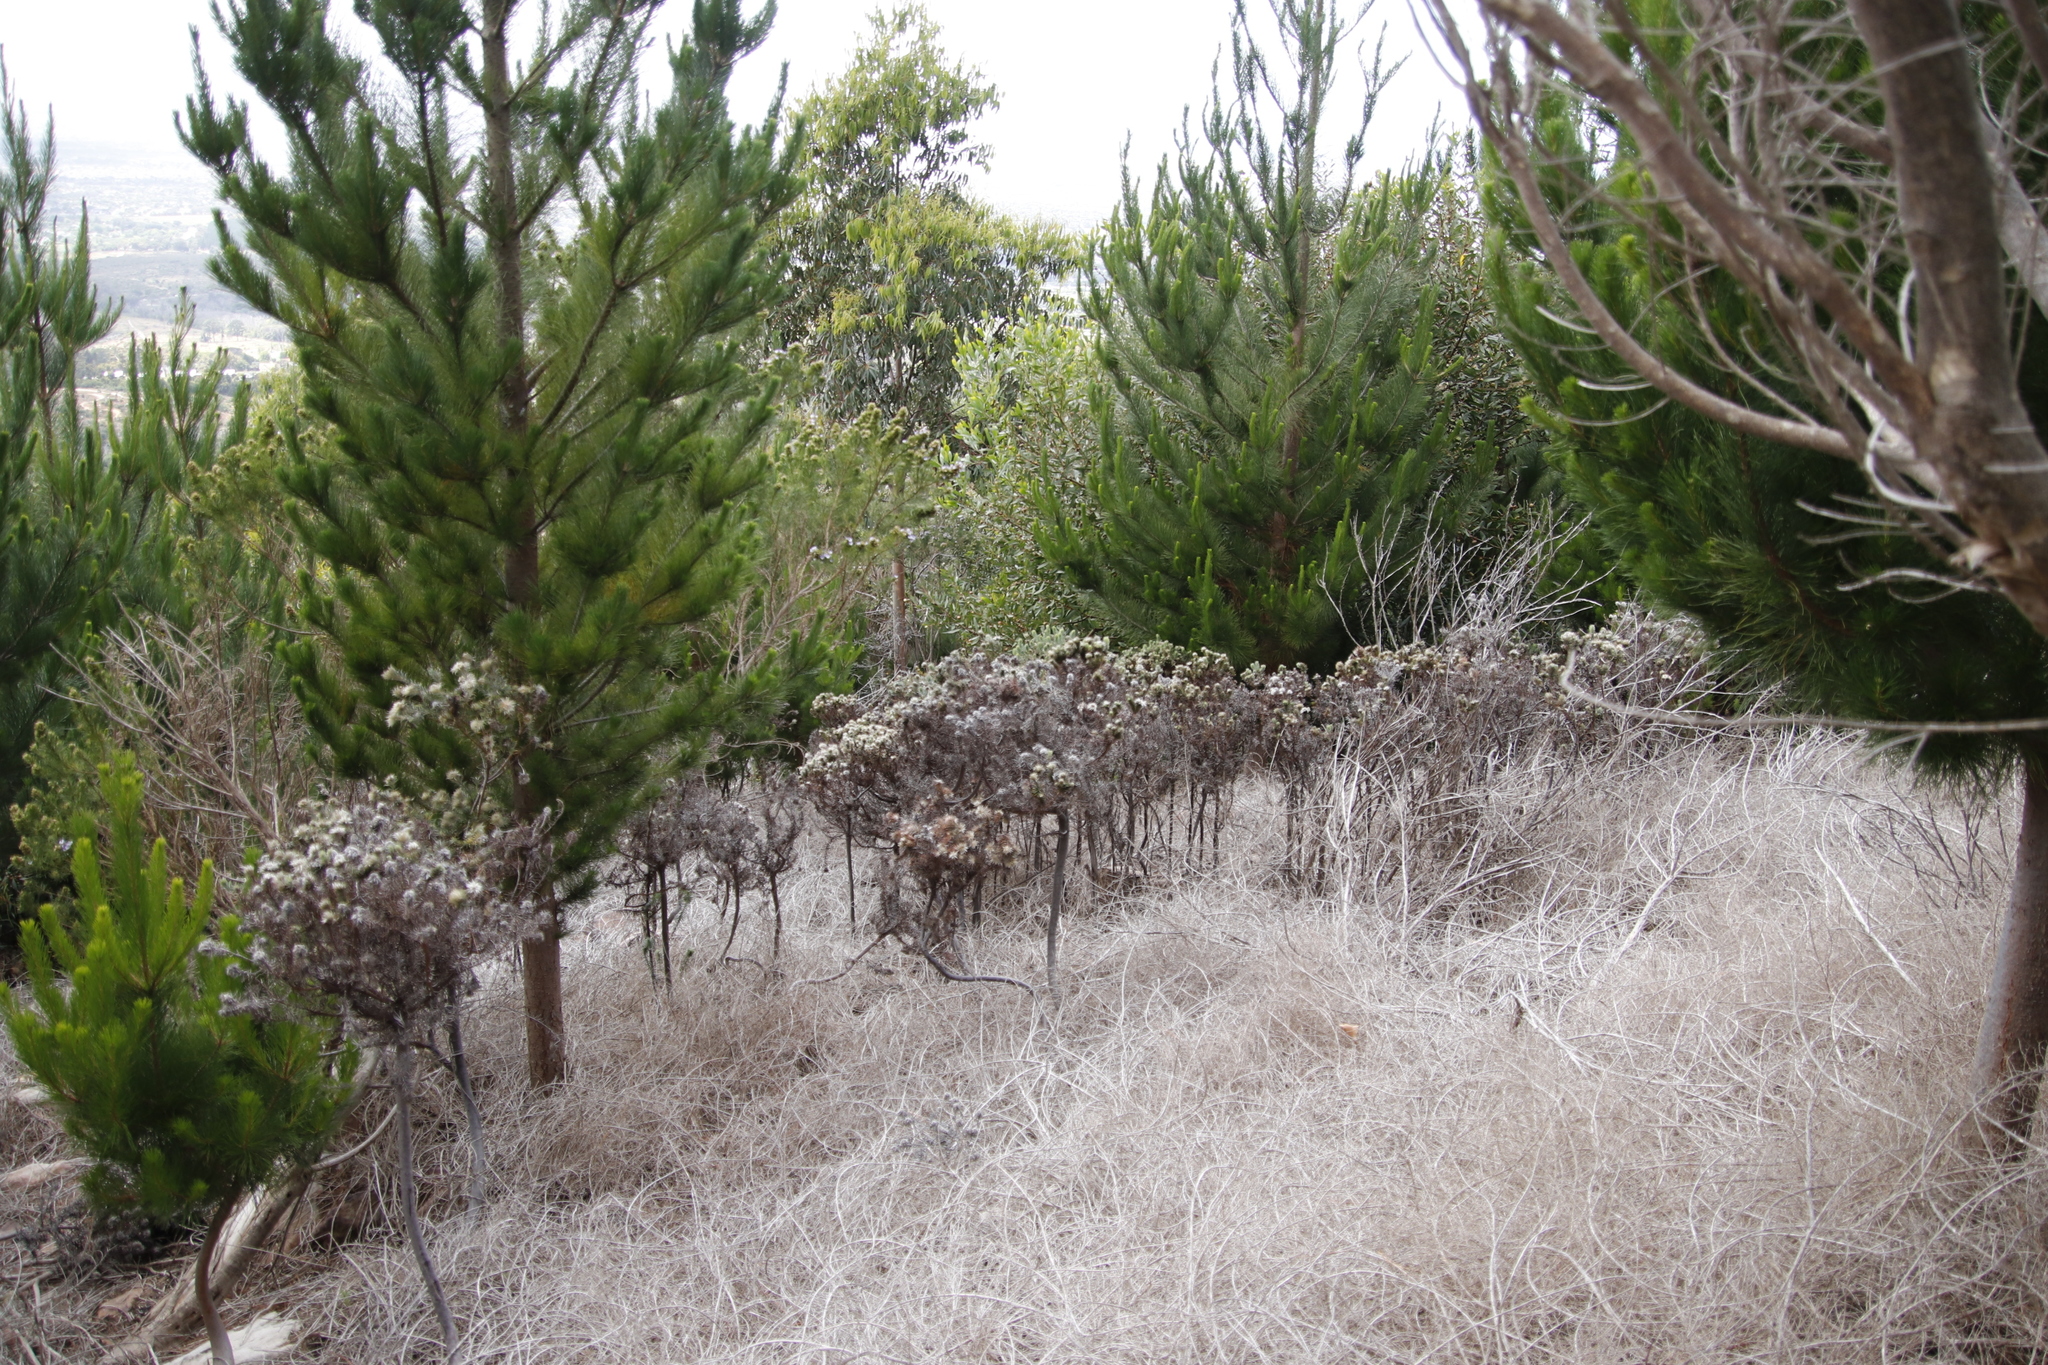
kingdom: Plantae
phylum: Tracheophyta
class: Magnoliopsida
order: Rosales
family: Rhamnaceae
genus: Phylica
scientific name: Phylica pubescens
